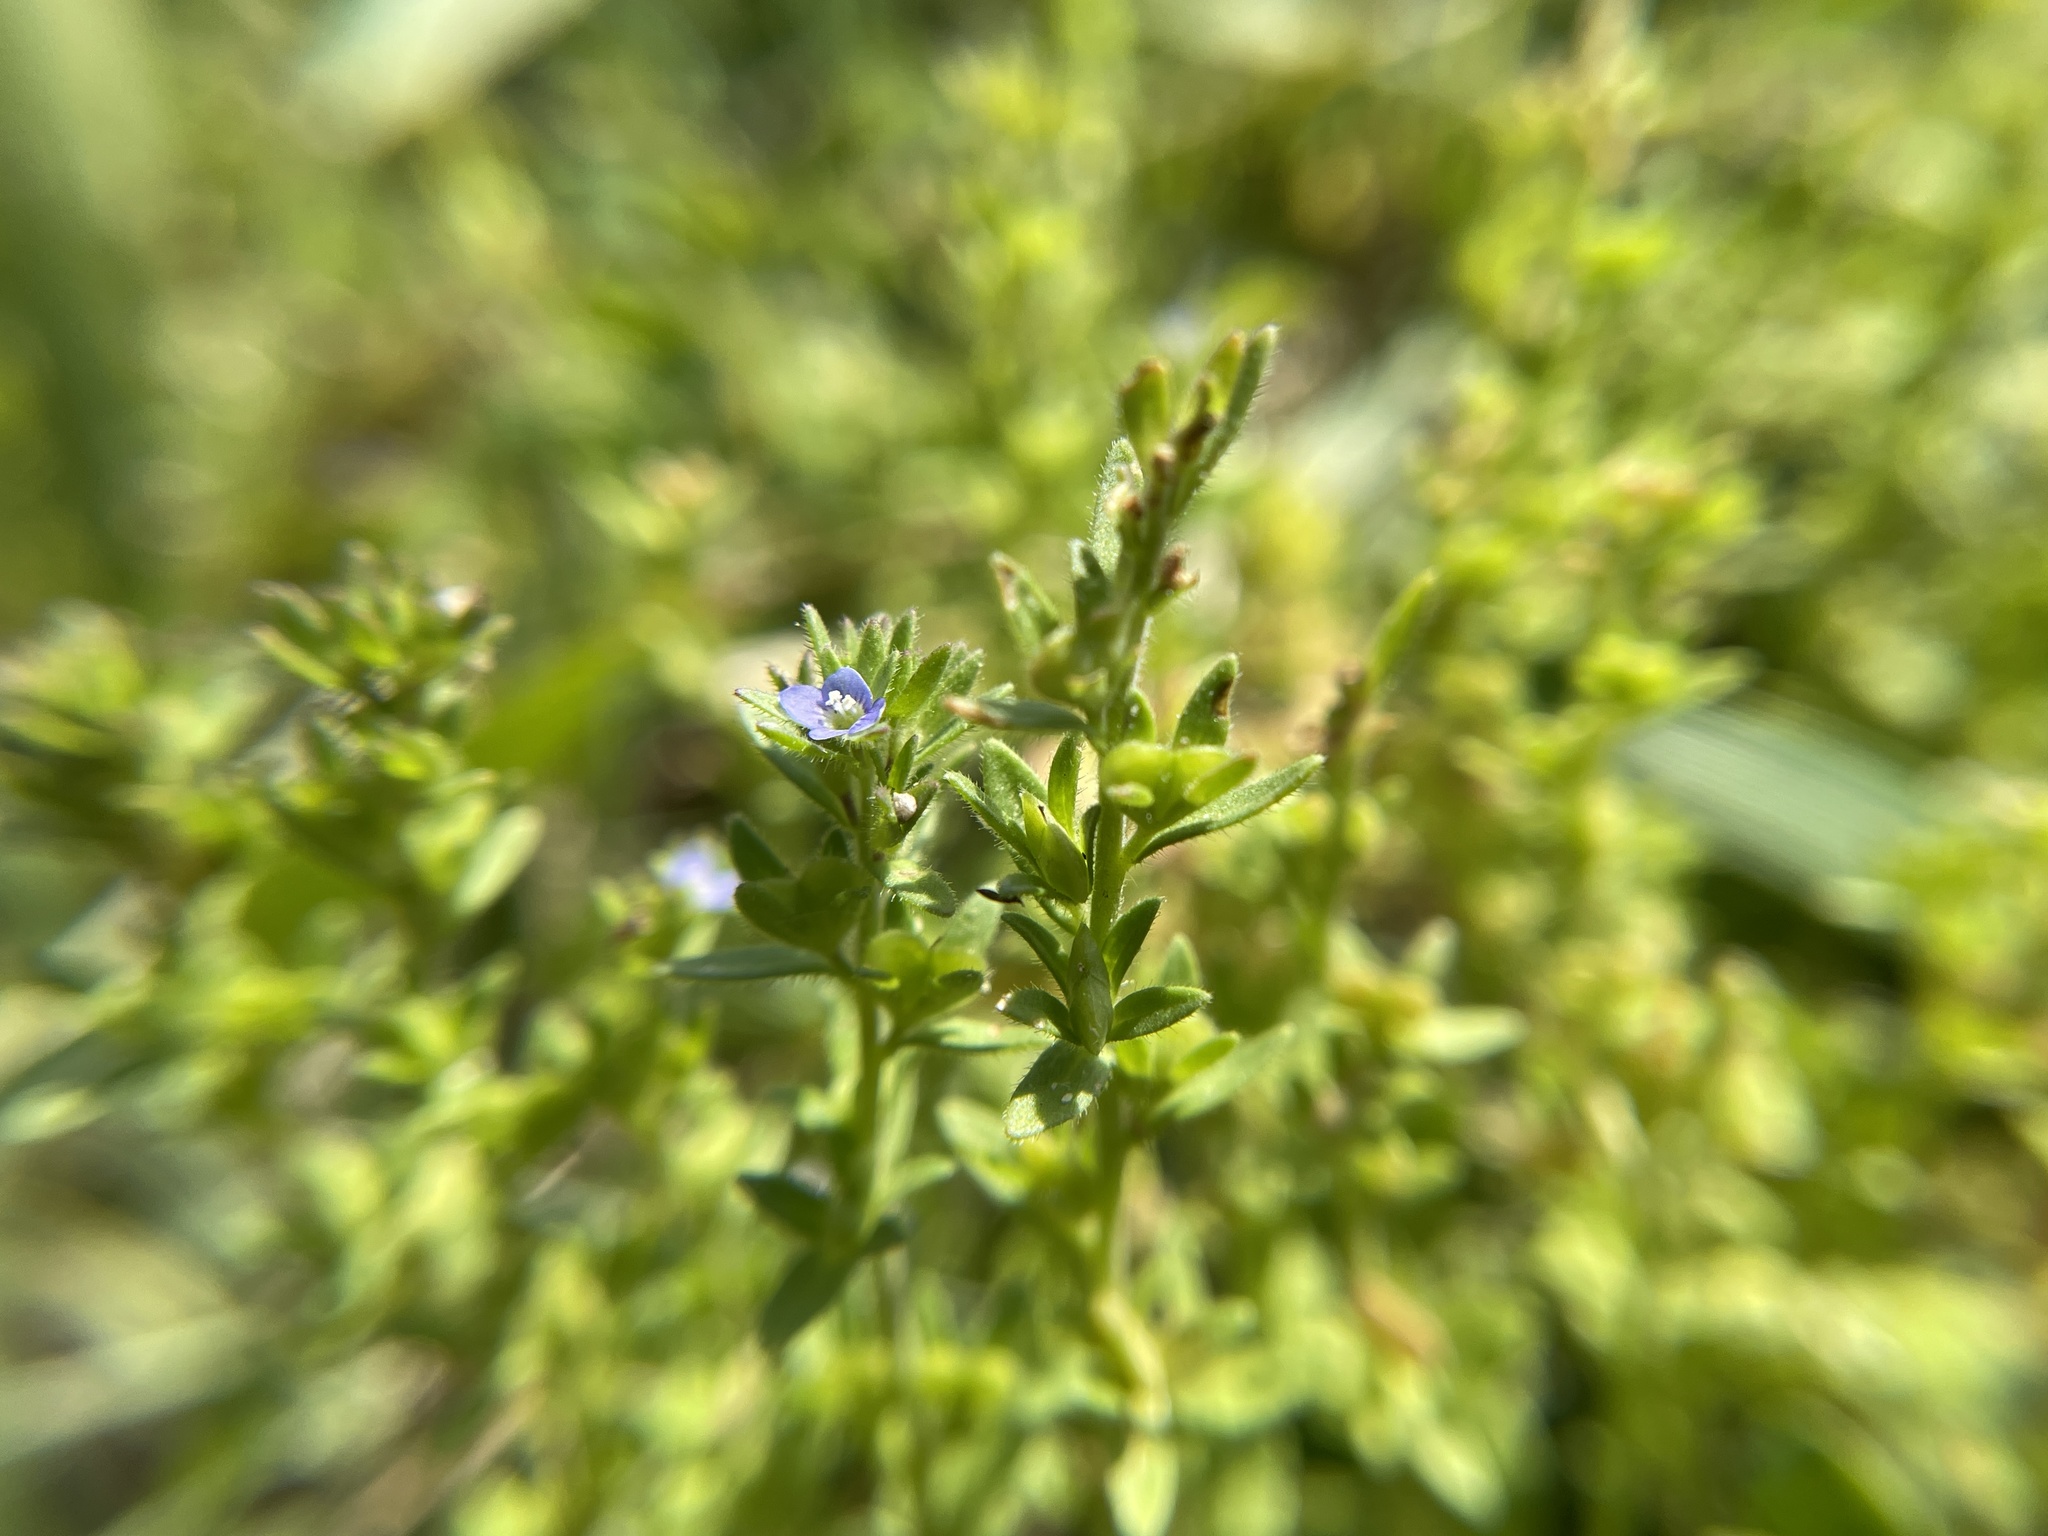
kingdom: Plantae
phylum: Tracheophyta
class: Magnoliopsida
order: Lamiales
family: Plantaginaceae
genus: Veronica
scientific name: Veronica arvensis
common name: Corn speedwell
